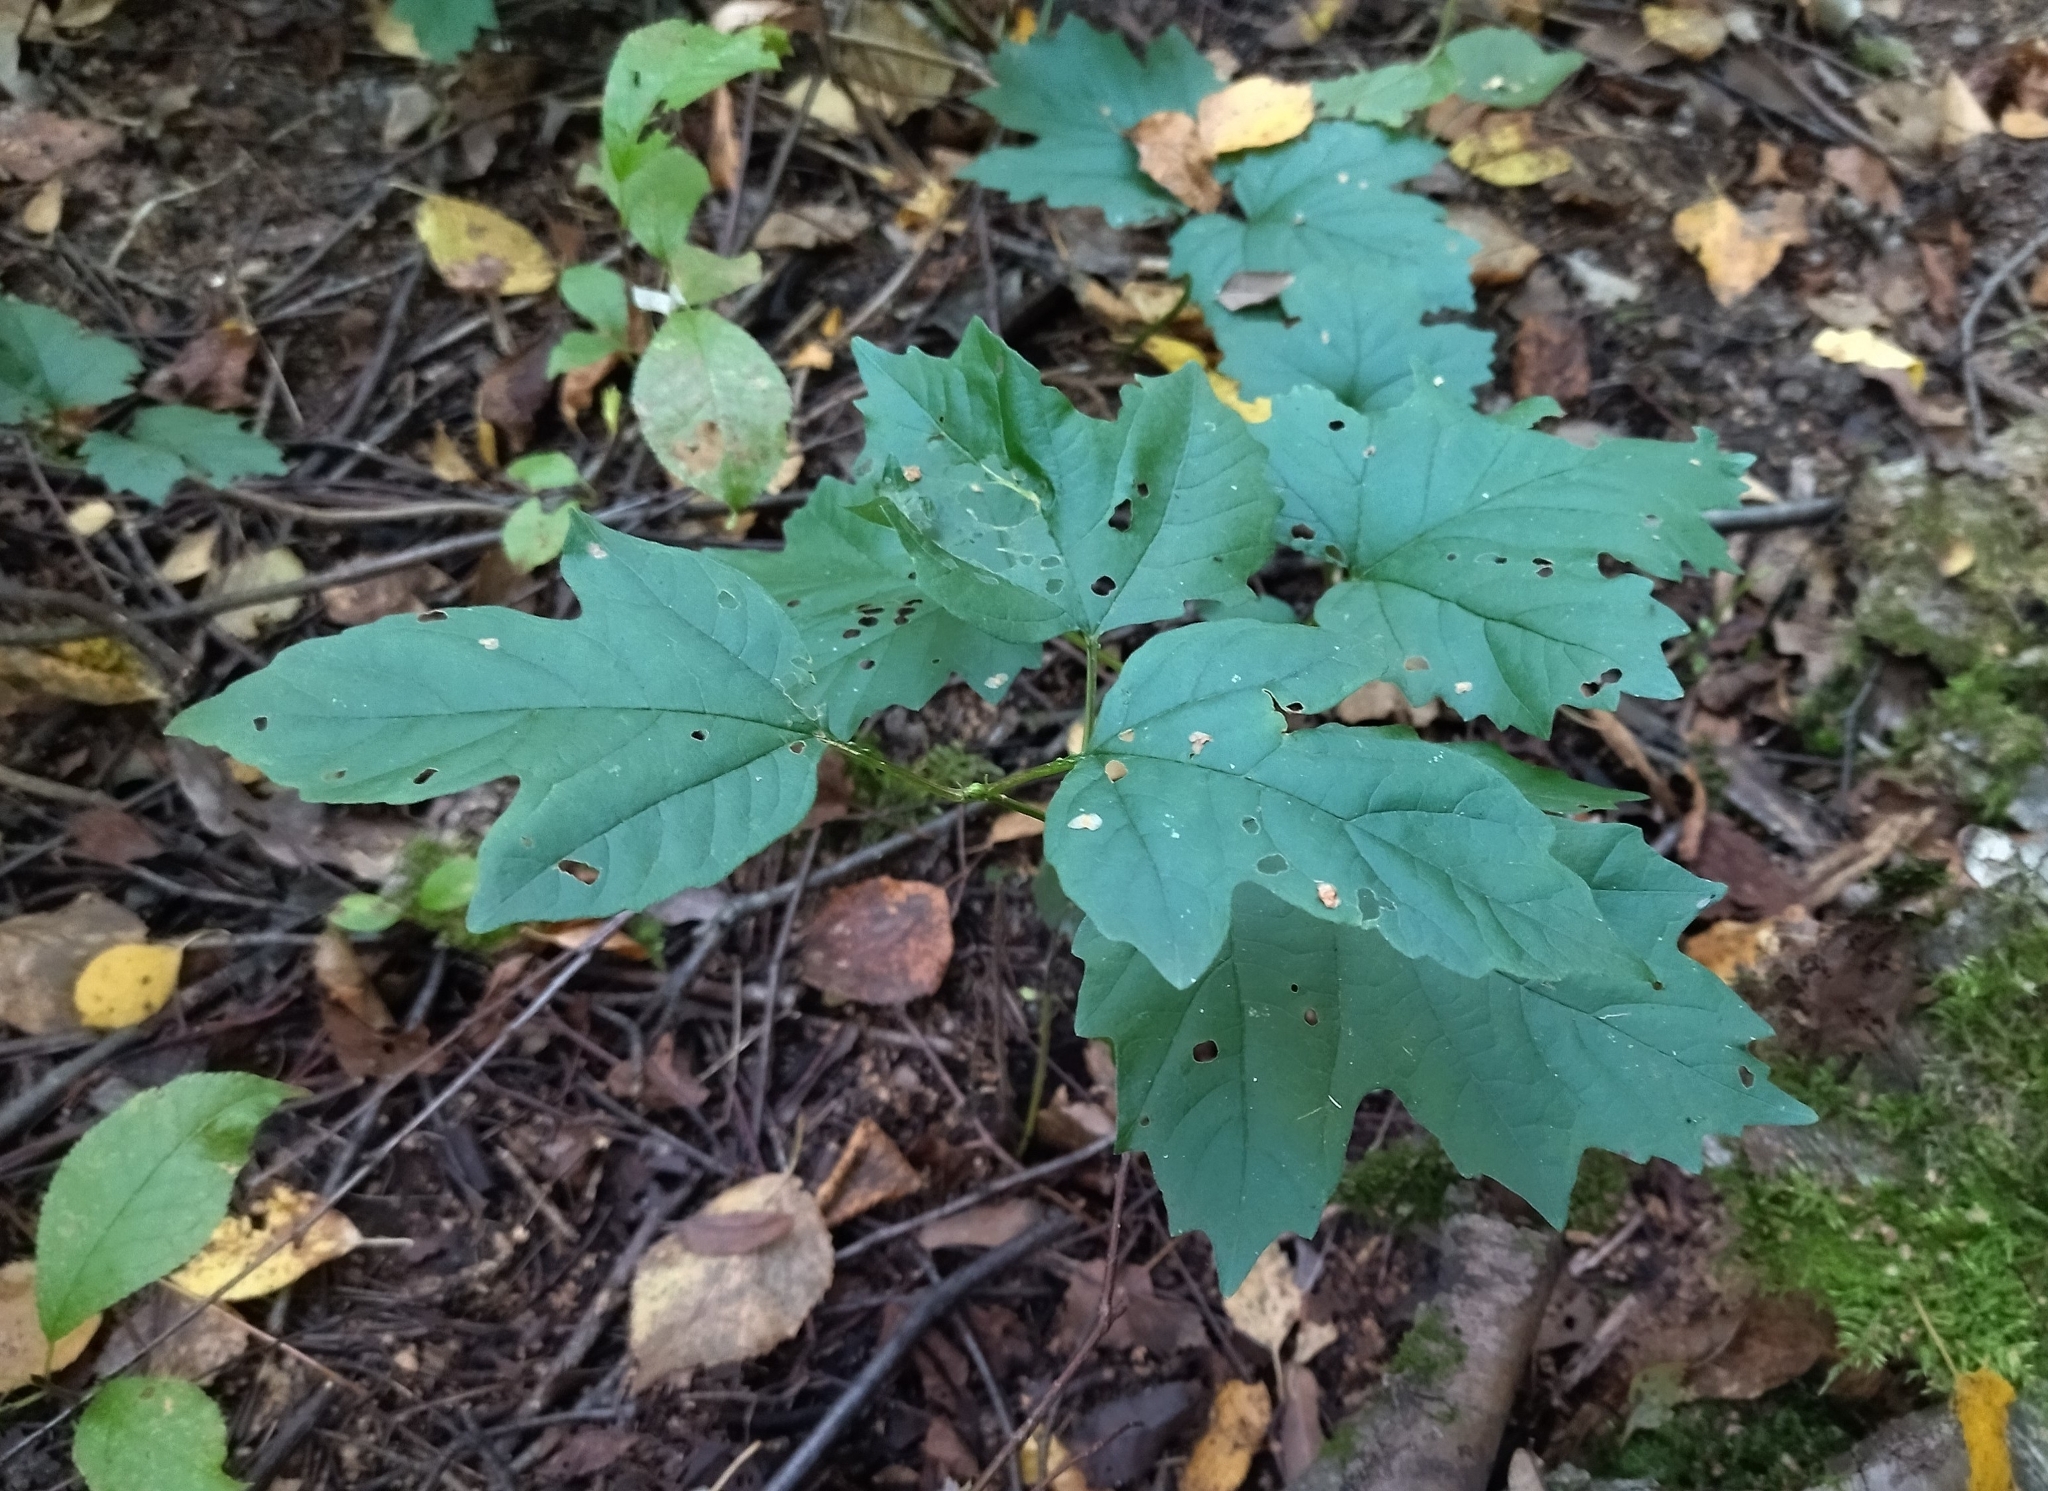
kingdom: Plantae
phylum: Tracheophyta
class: Magnoliopsida
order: Dipsacales
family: Viburnaceae
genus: Viburnum
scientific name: Viburnum opulus
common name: Guelder-rose
